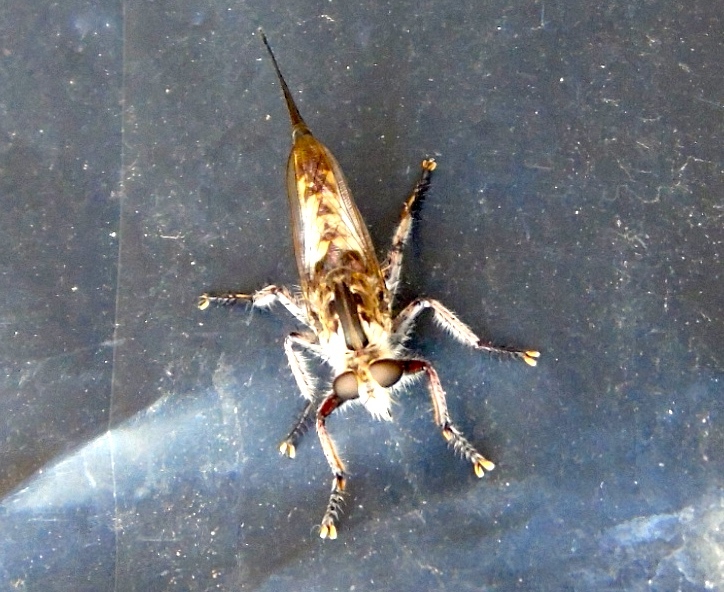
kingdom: Animalia
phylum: Arthropoda
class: Insecta
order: Diptera
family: Asilidae
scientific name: Asilidae
